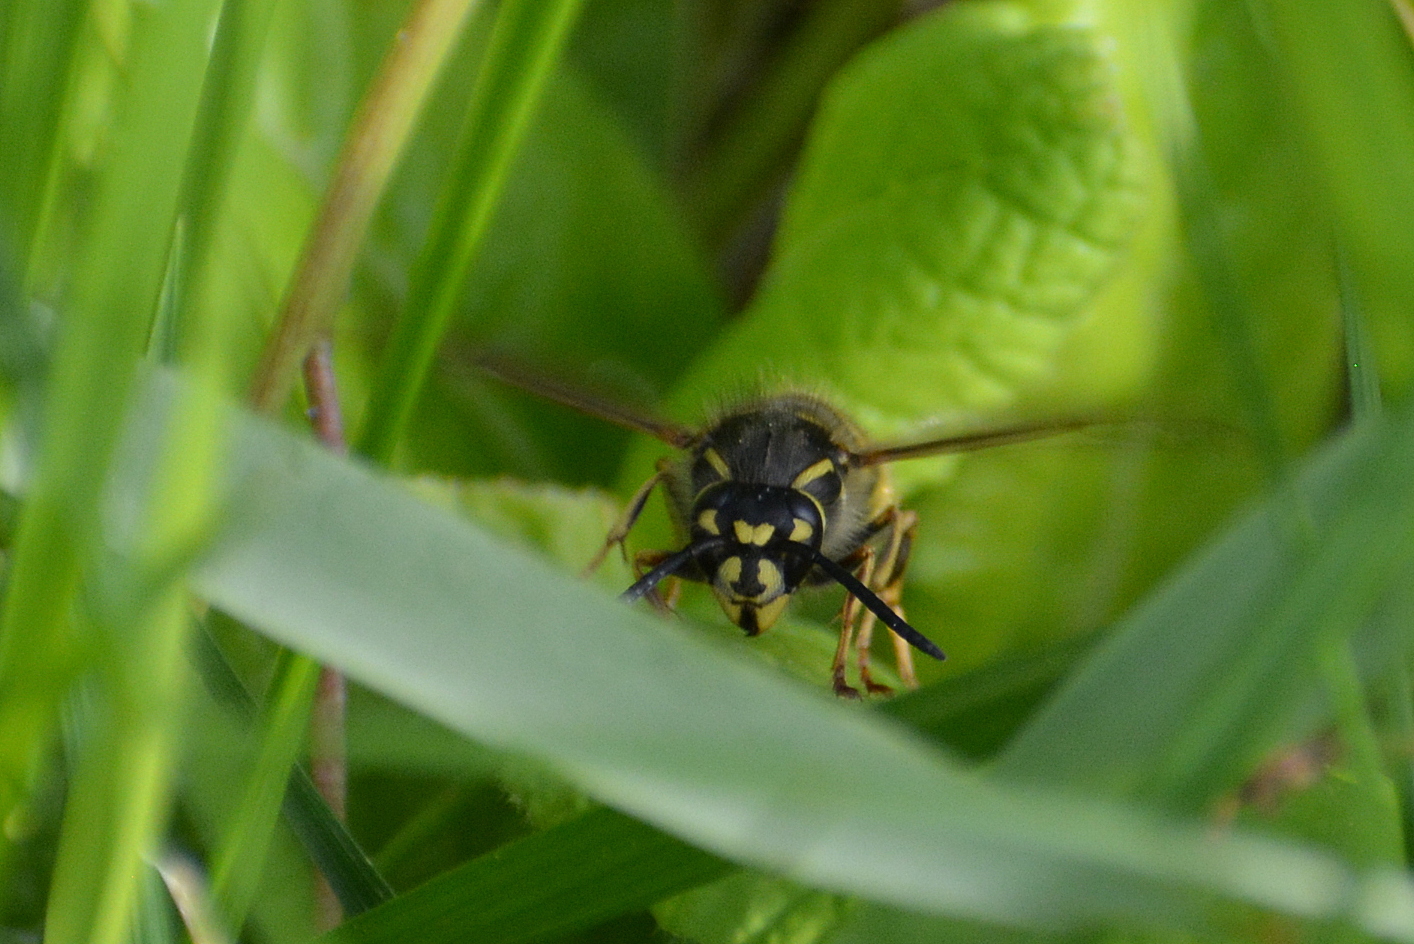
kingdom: Animalia
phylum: Arthropoda
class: Insecta
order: Hymenoptera
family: Vespidae
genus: Vespula
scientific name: Vespula vulgaris
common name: Common wasp
